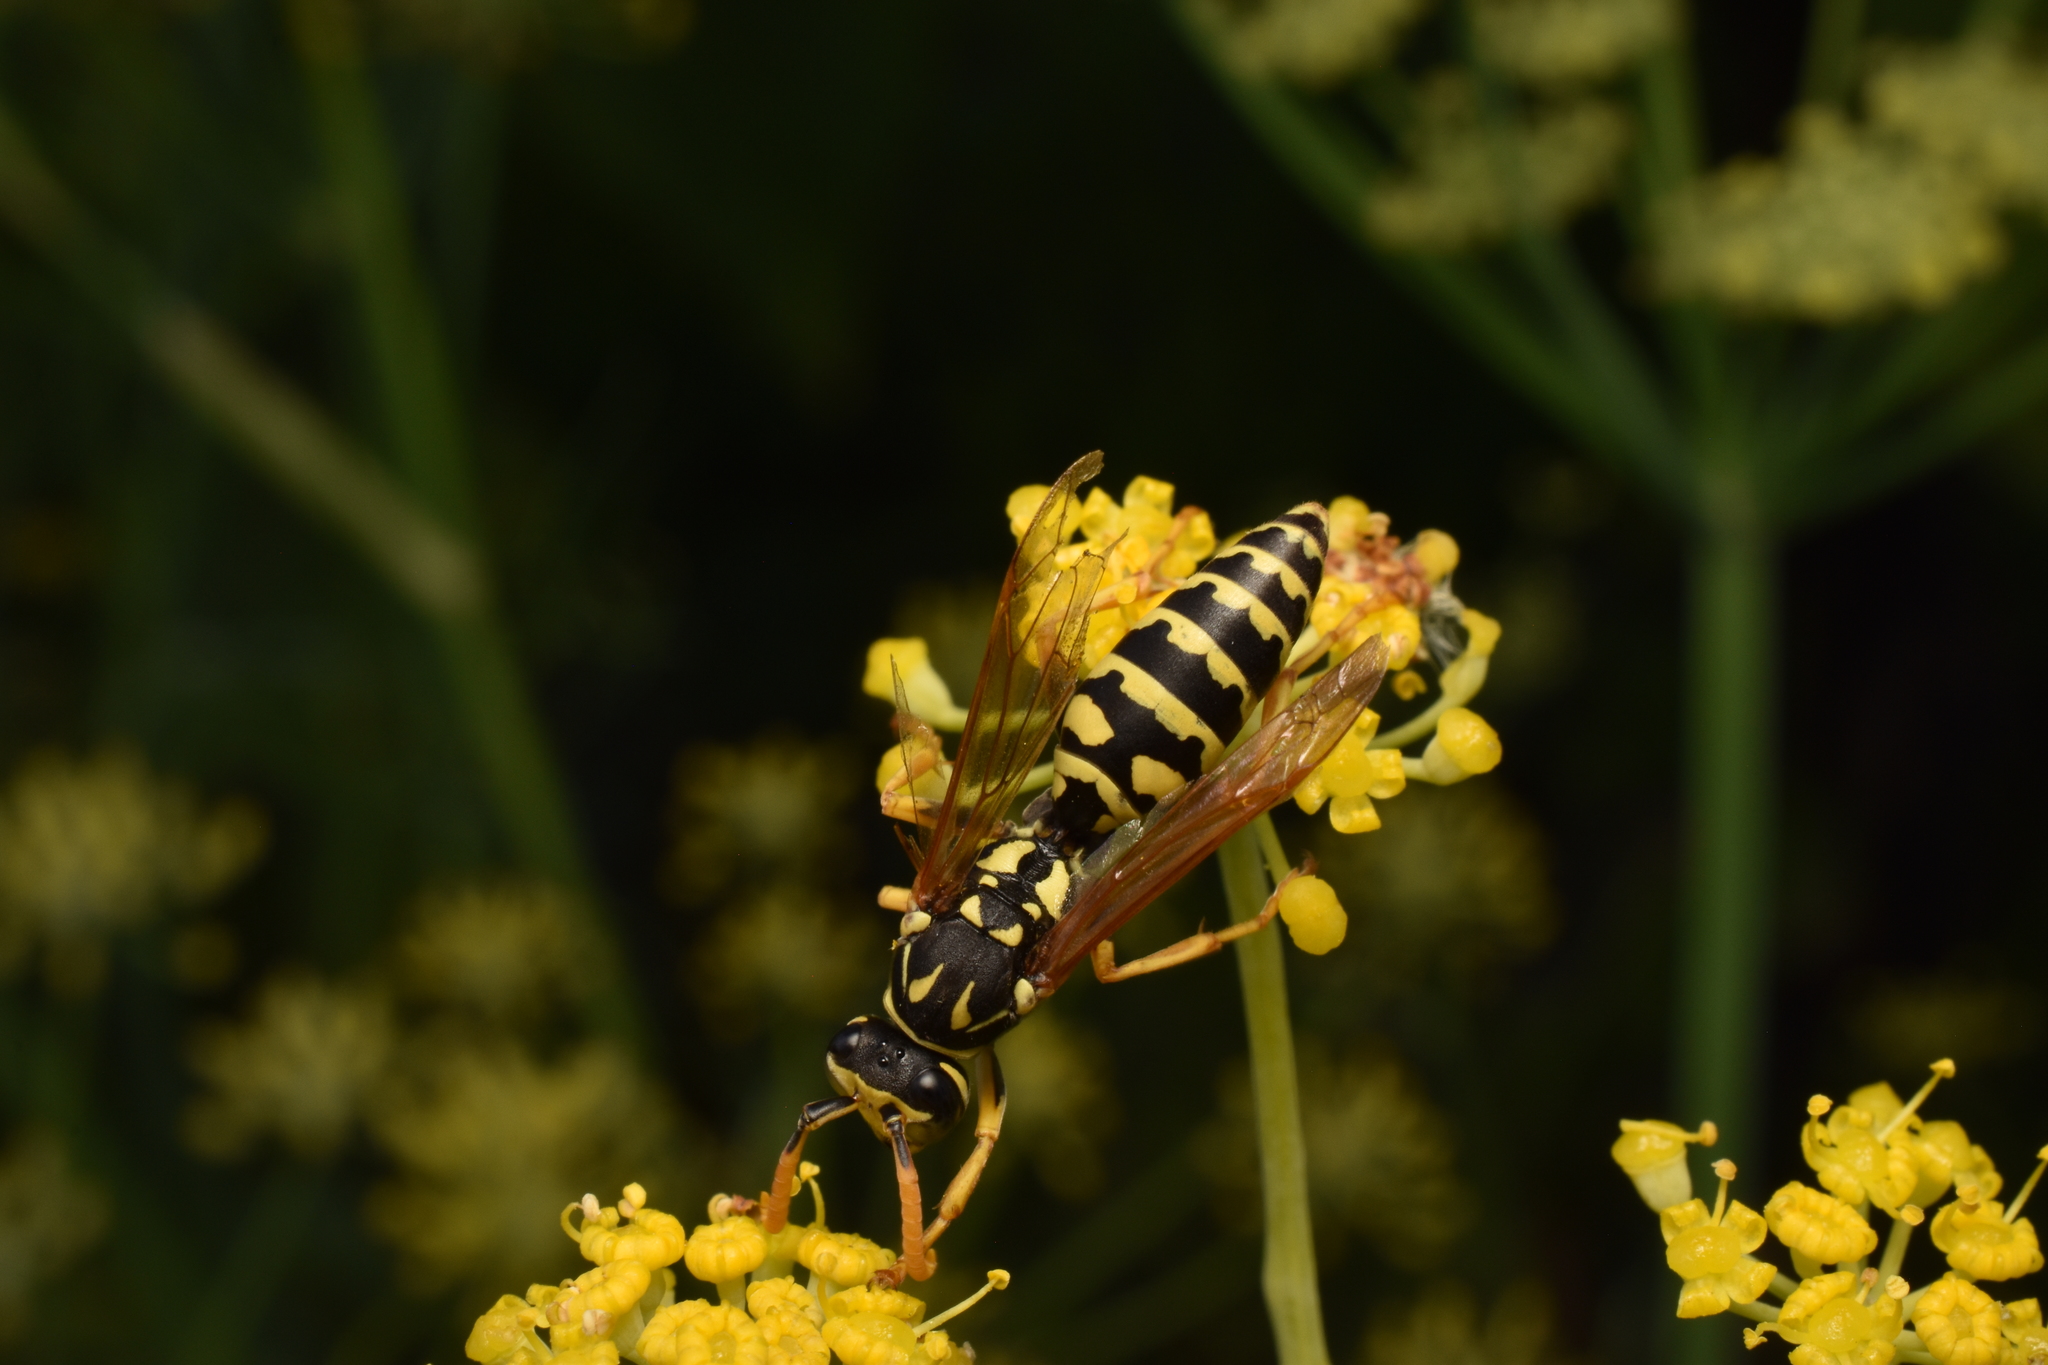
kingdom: Animalia
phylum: Arthropoda
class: Insecta
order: Hymenoptera
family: Eumenidae
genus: Polistes
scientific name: Polistes dominula
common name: Paper wasp
